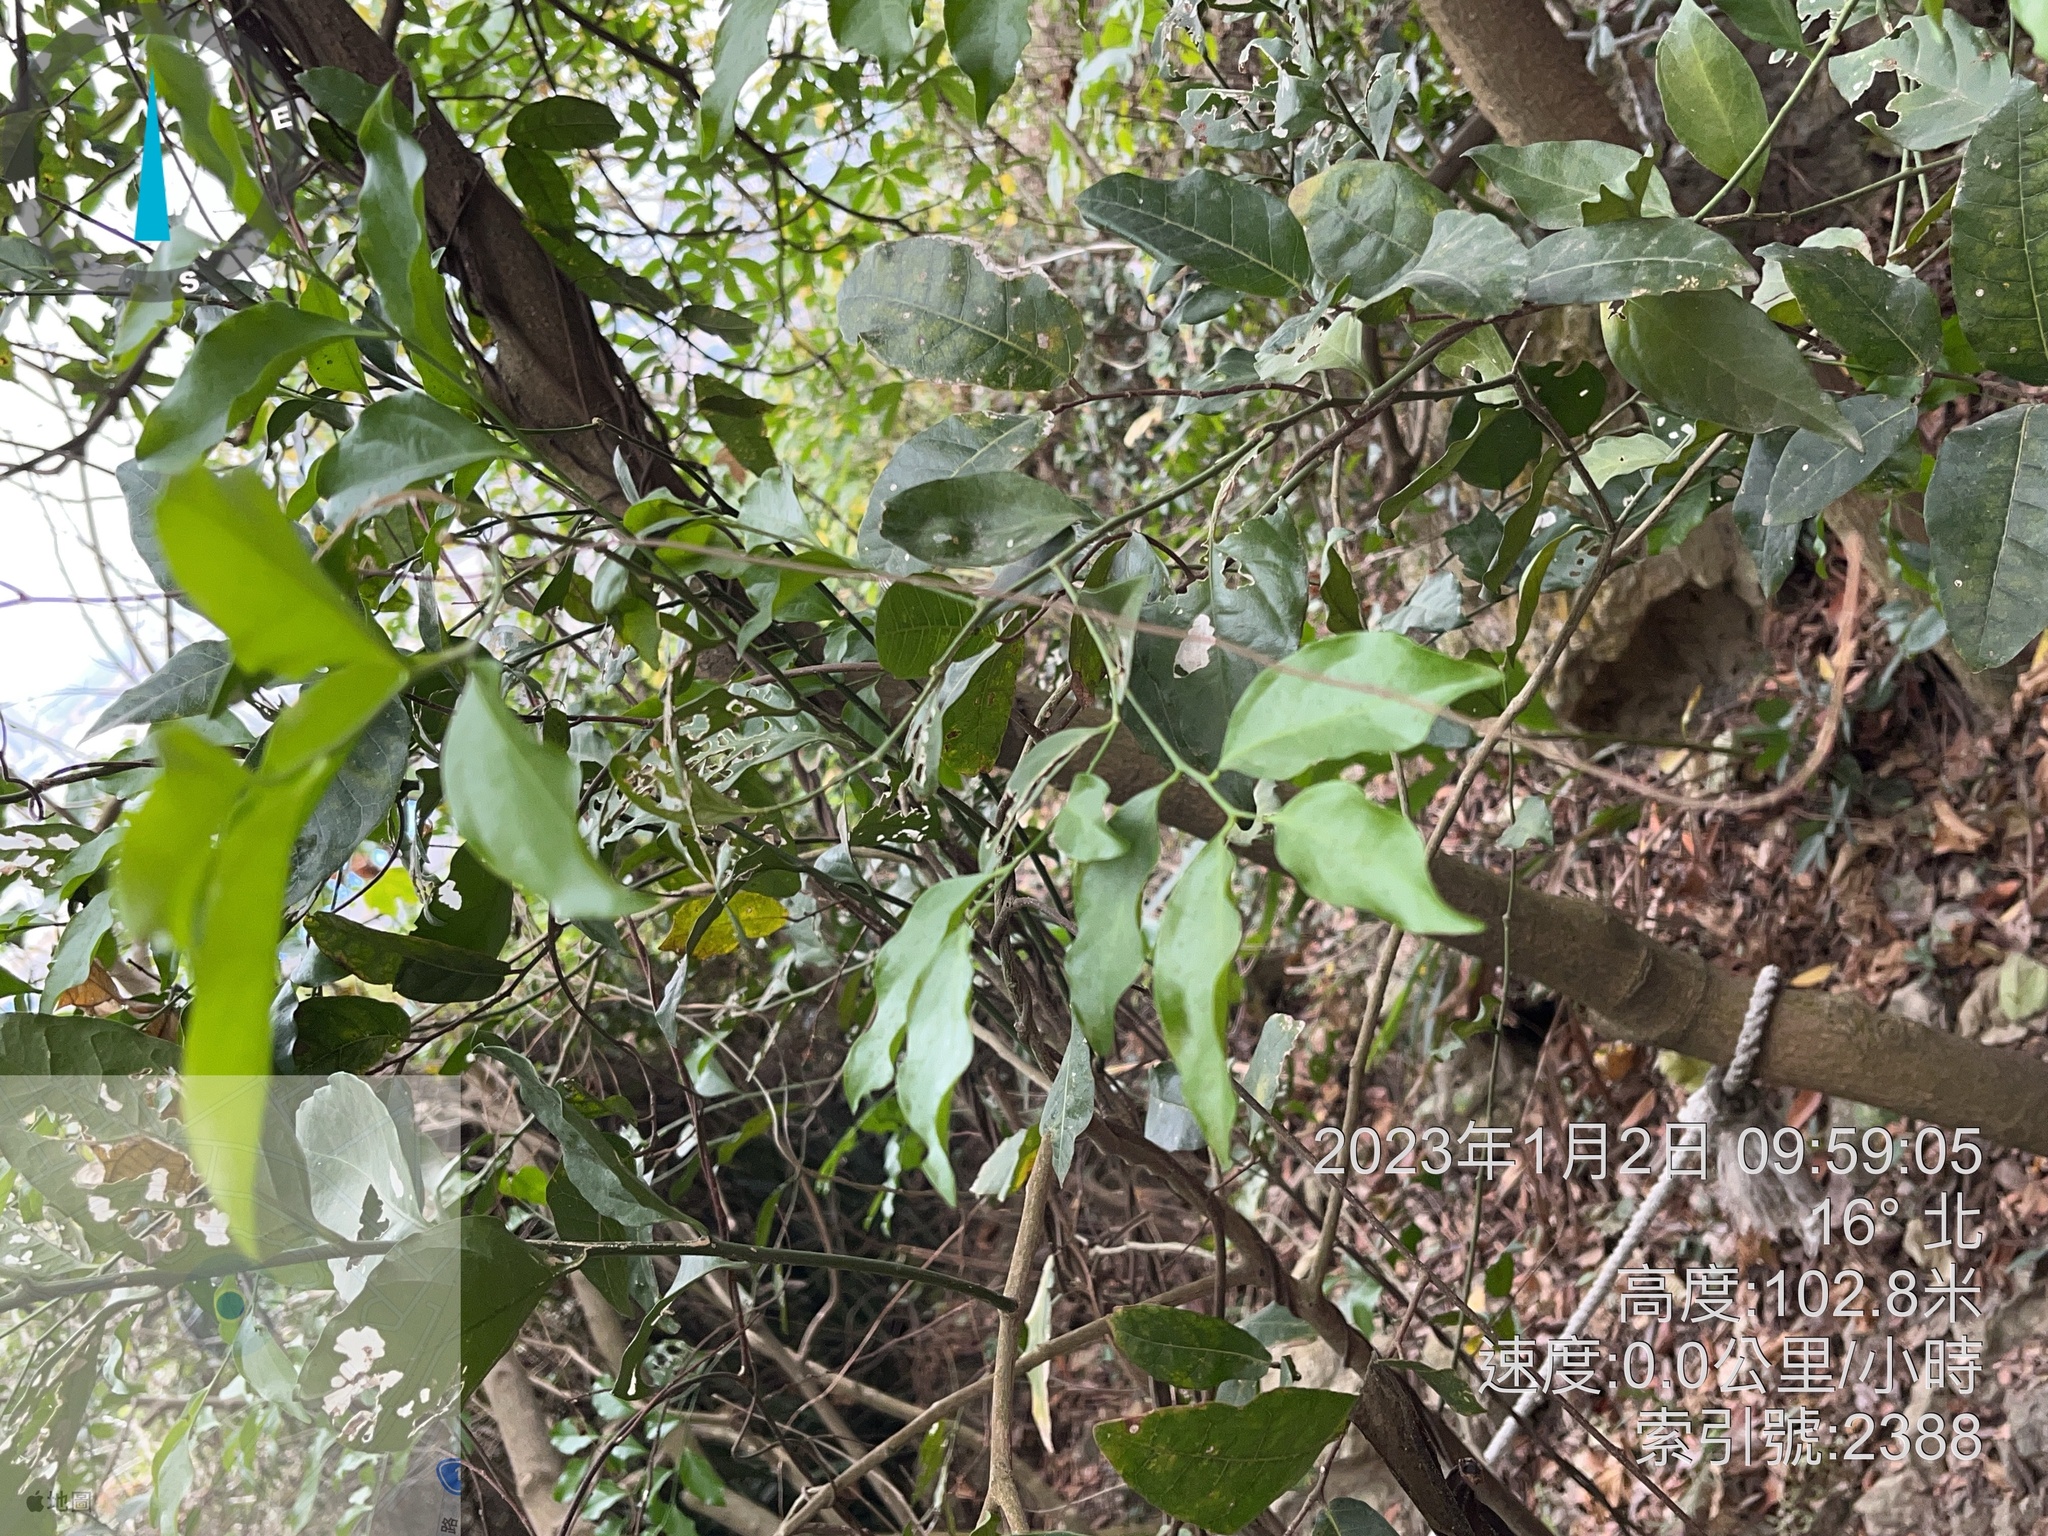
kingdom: Plantae
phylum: Tracheophyta
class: Magnoliopsida
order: Santalales
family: Opiliaceae
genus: Champereia
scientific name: Champereia manillana
